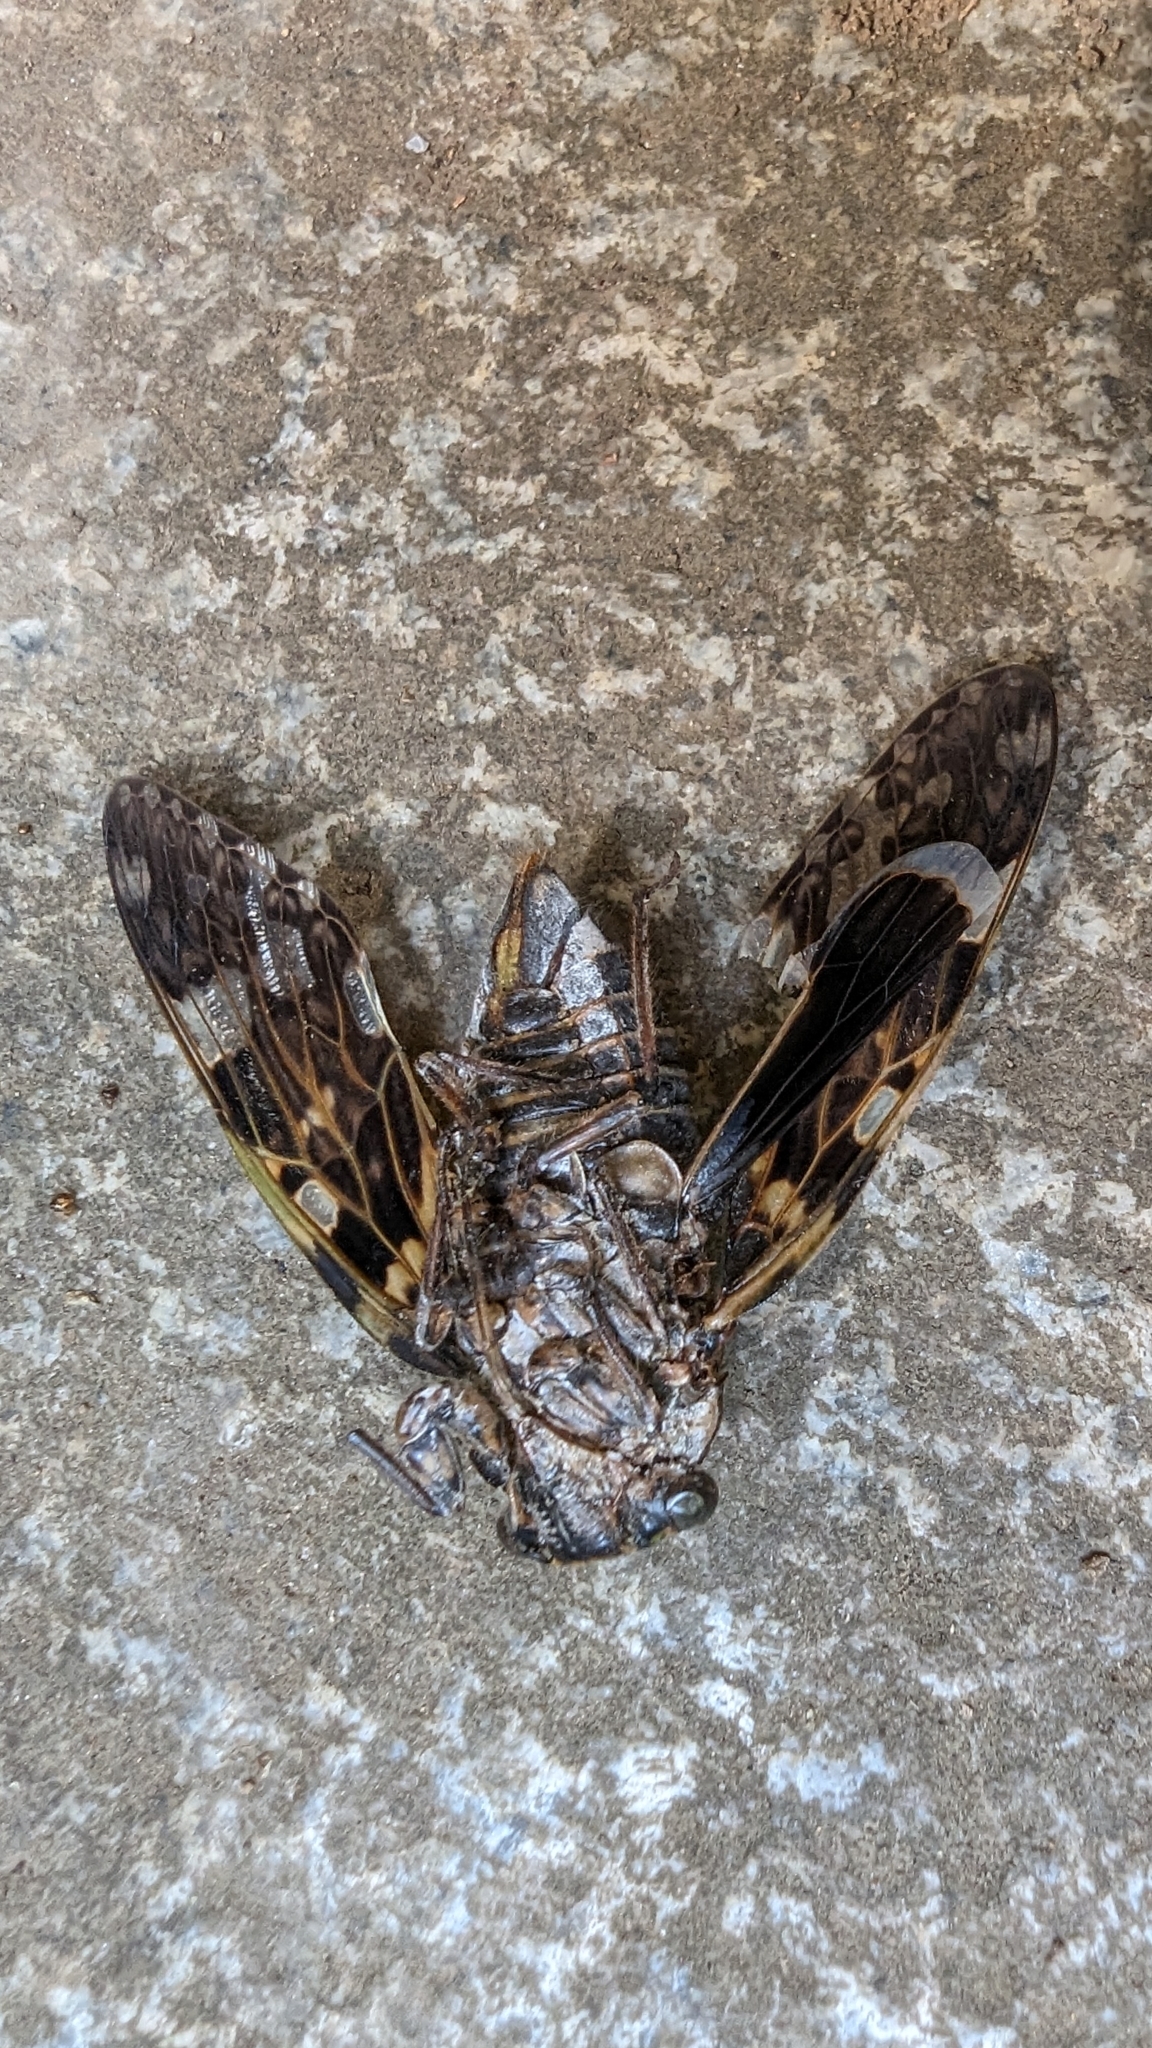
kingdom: Animalia
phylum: Arthropoda
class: Insecta
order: Hemiptera
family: Cicadidae
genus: Platypleura
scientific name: Platypleura kaempferi
